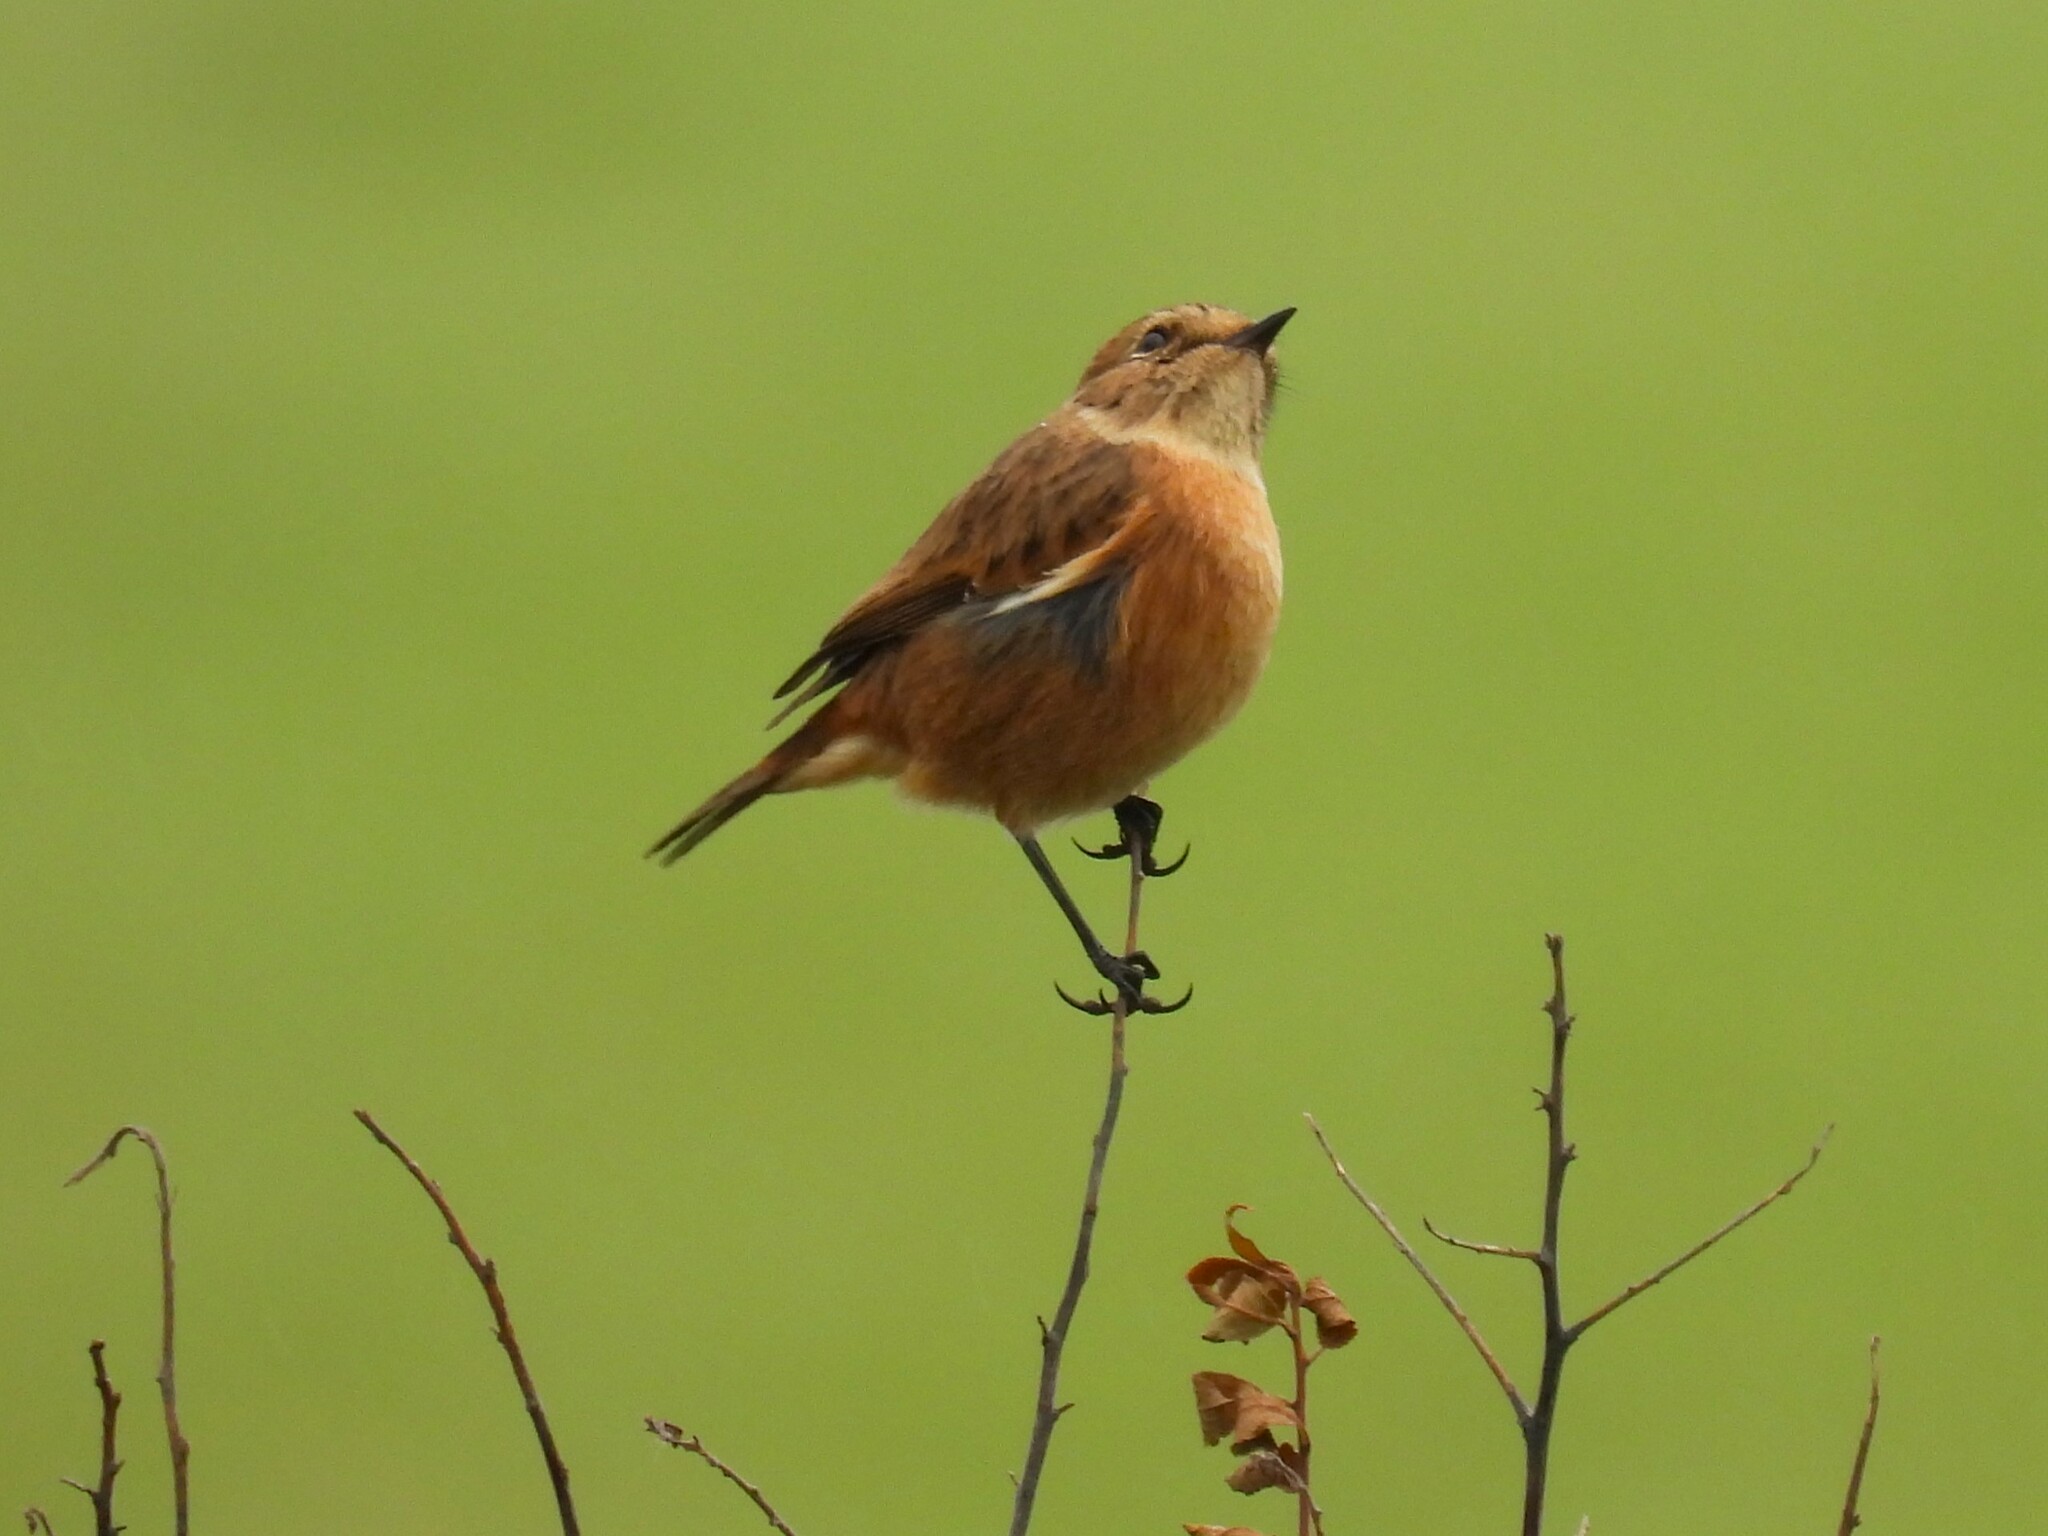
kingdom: Animalia
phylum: Chordata
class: Aves
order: Passeriformes
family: Muscicapidae
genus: Saxicola
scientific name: Saxicola rubicola
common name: European stonechat
